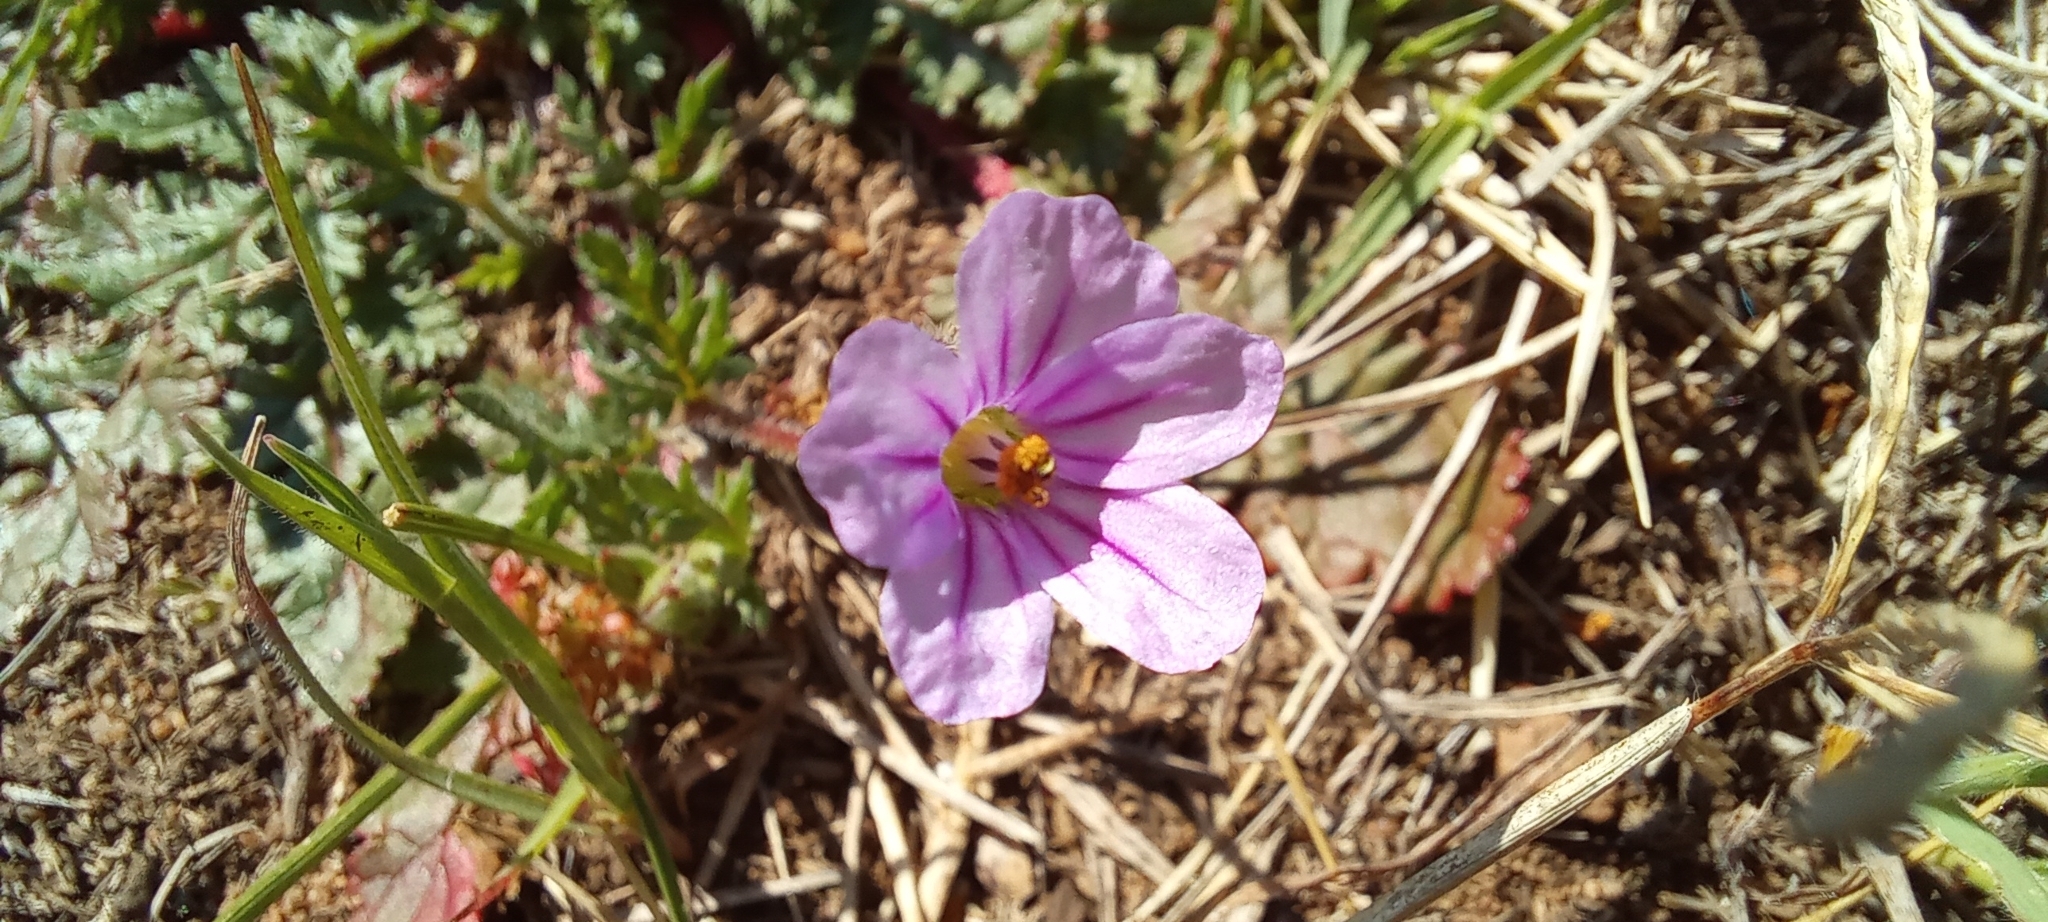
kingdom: Plantae
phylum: Tracheophyta
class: Magnoliopsida
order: Geraniales
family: Geraniaceae
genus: Erodium
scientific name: Erodium botrys
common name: Mediterranean stork's-bill
